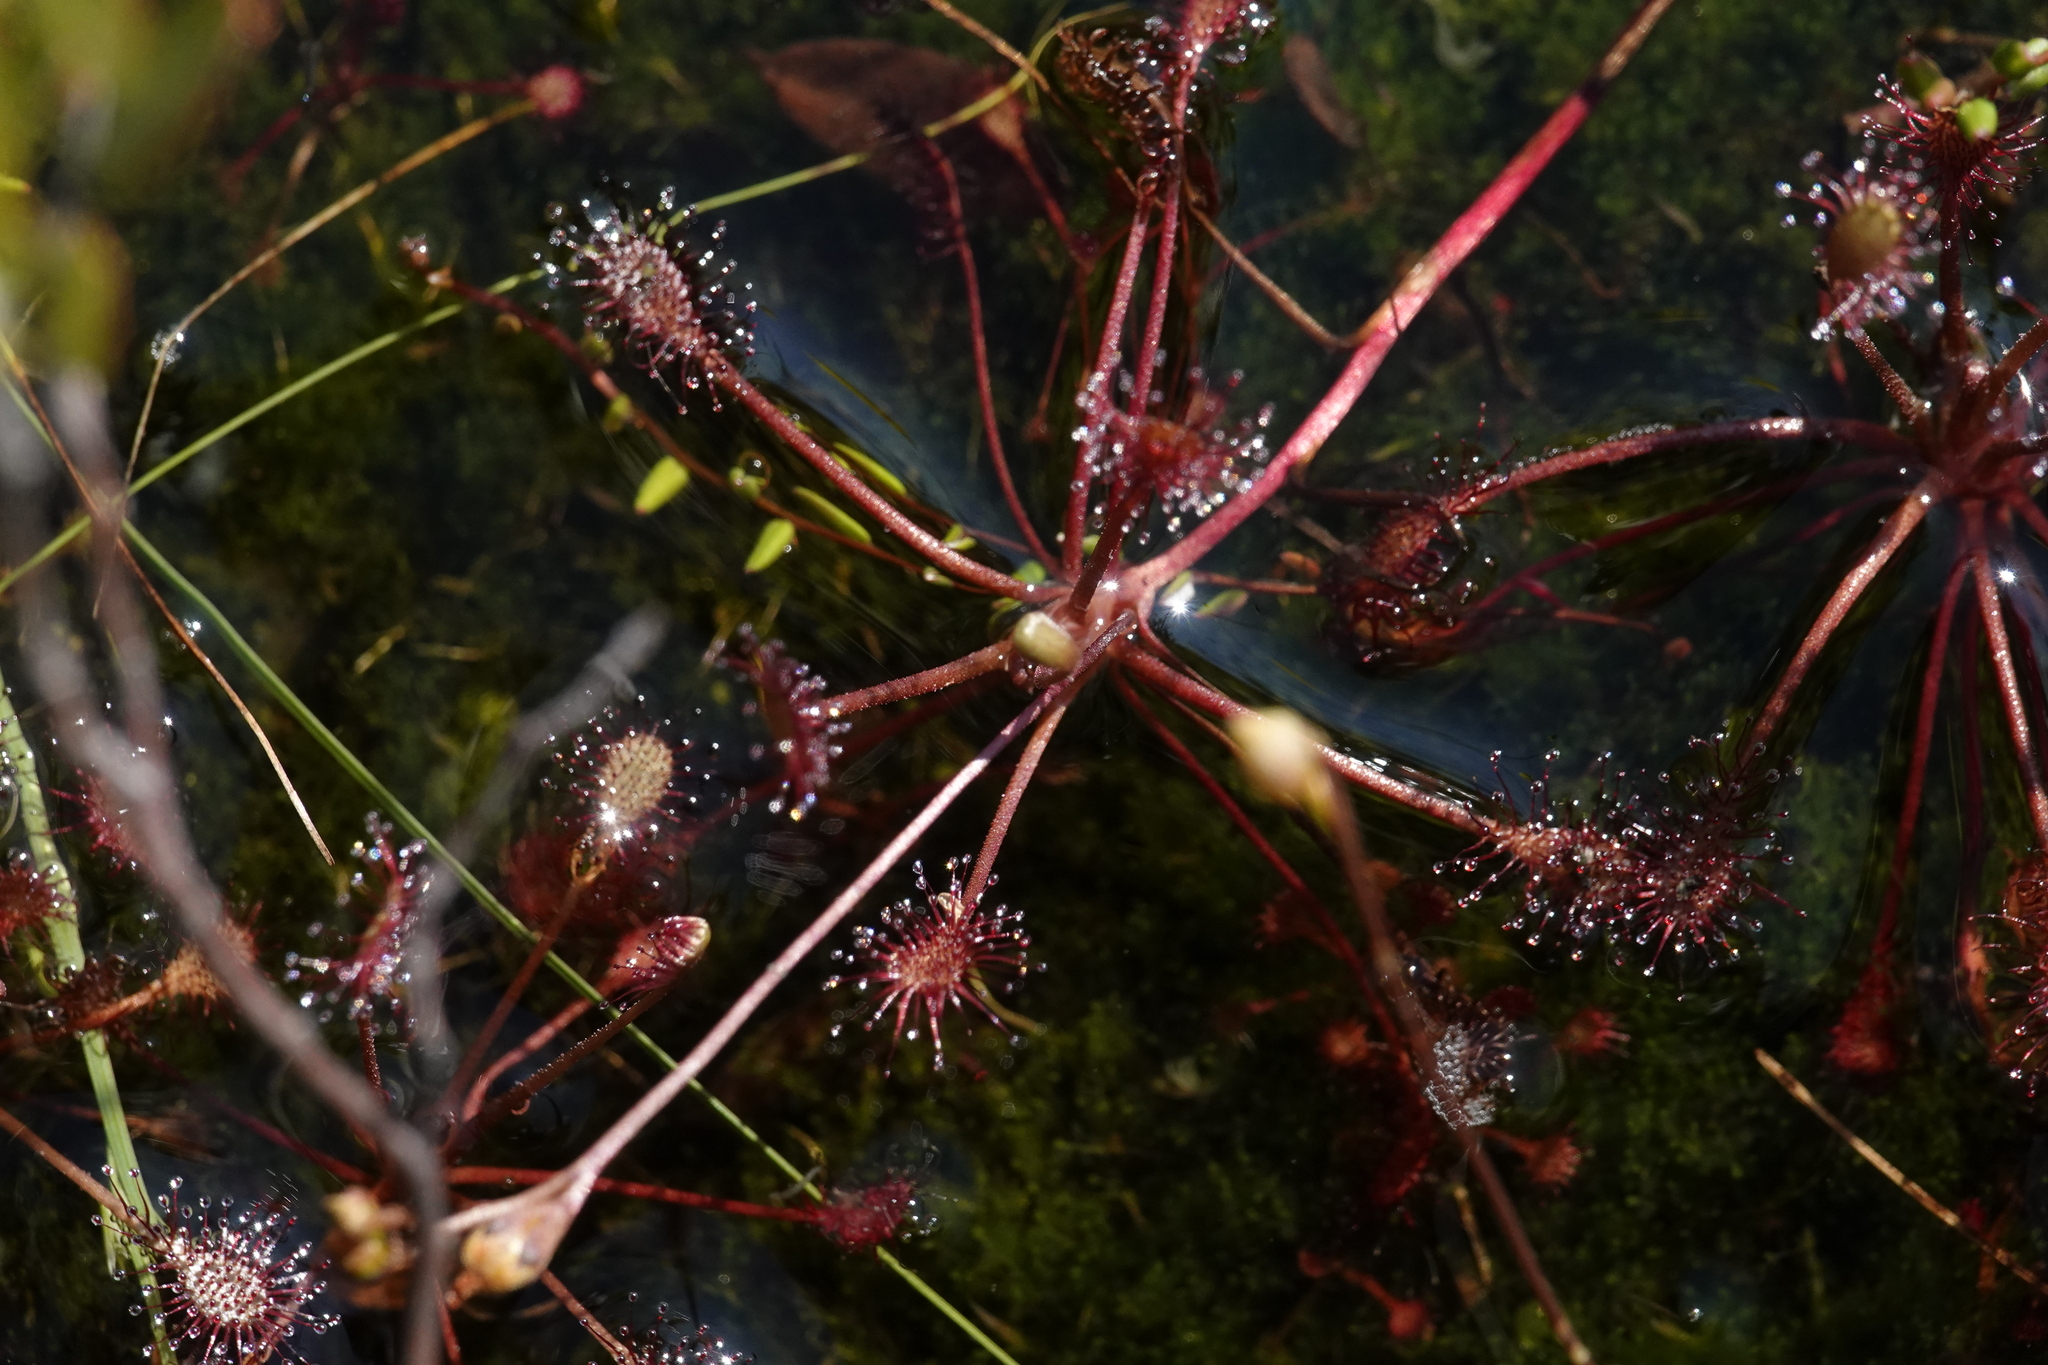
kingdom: Plantae
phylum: Tracheophyta
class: Magnoliopsida
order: Caryophyllales
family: Droseraceae
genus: Drosera
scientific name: Drosera intermedia
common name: Oblong-leaved sundew
